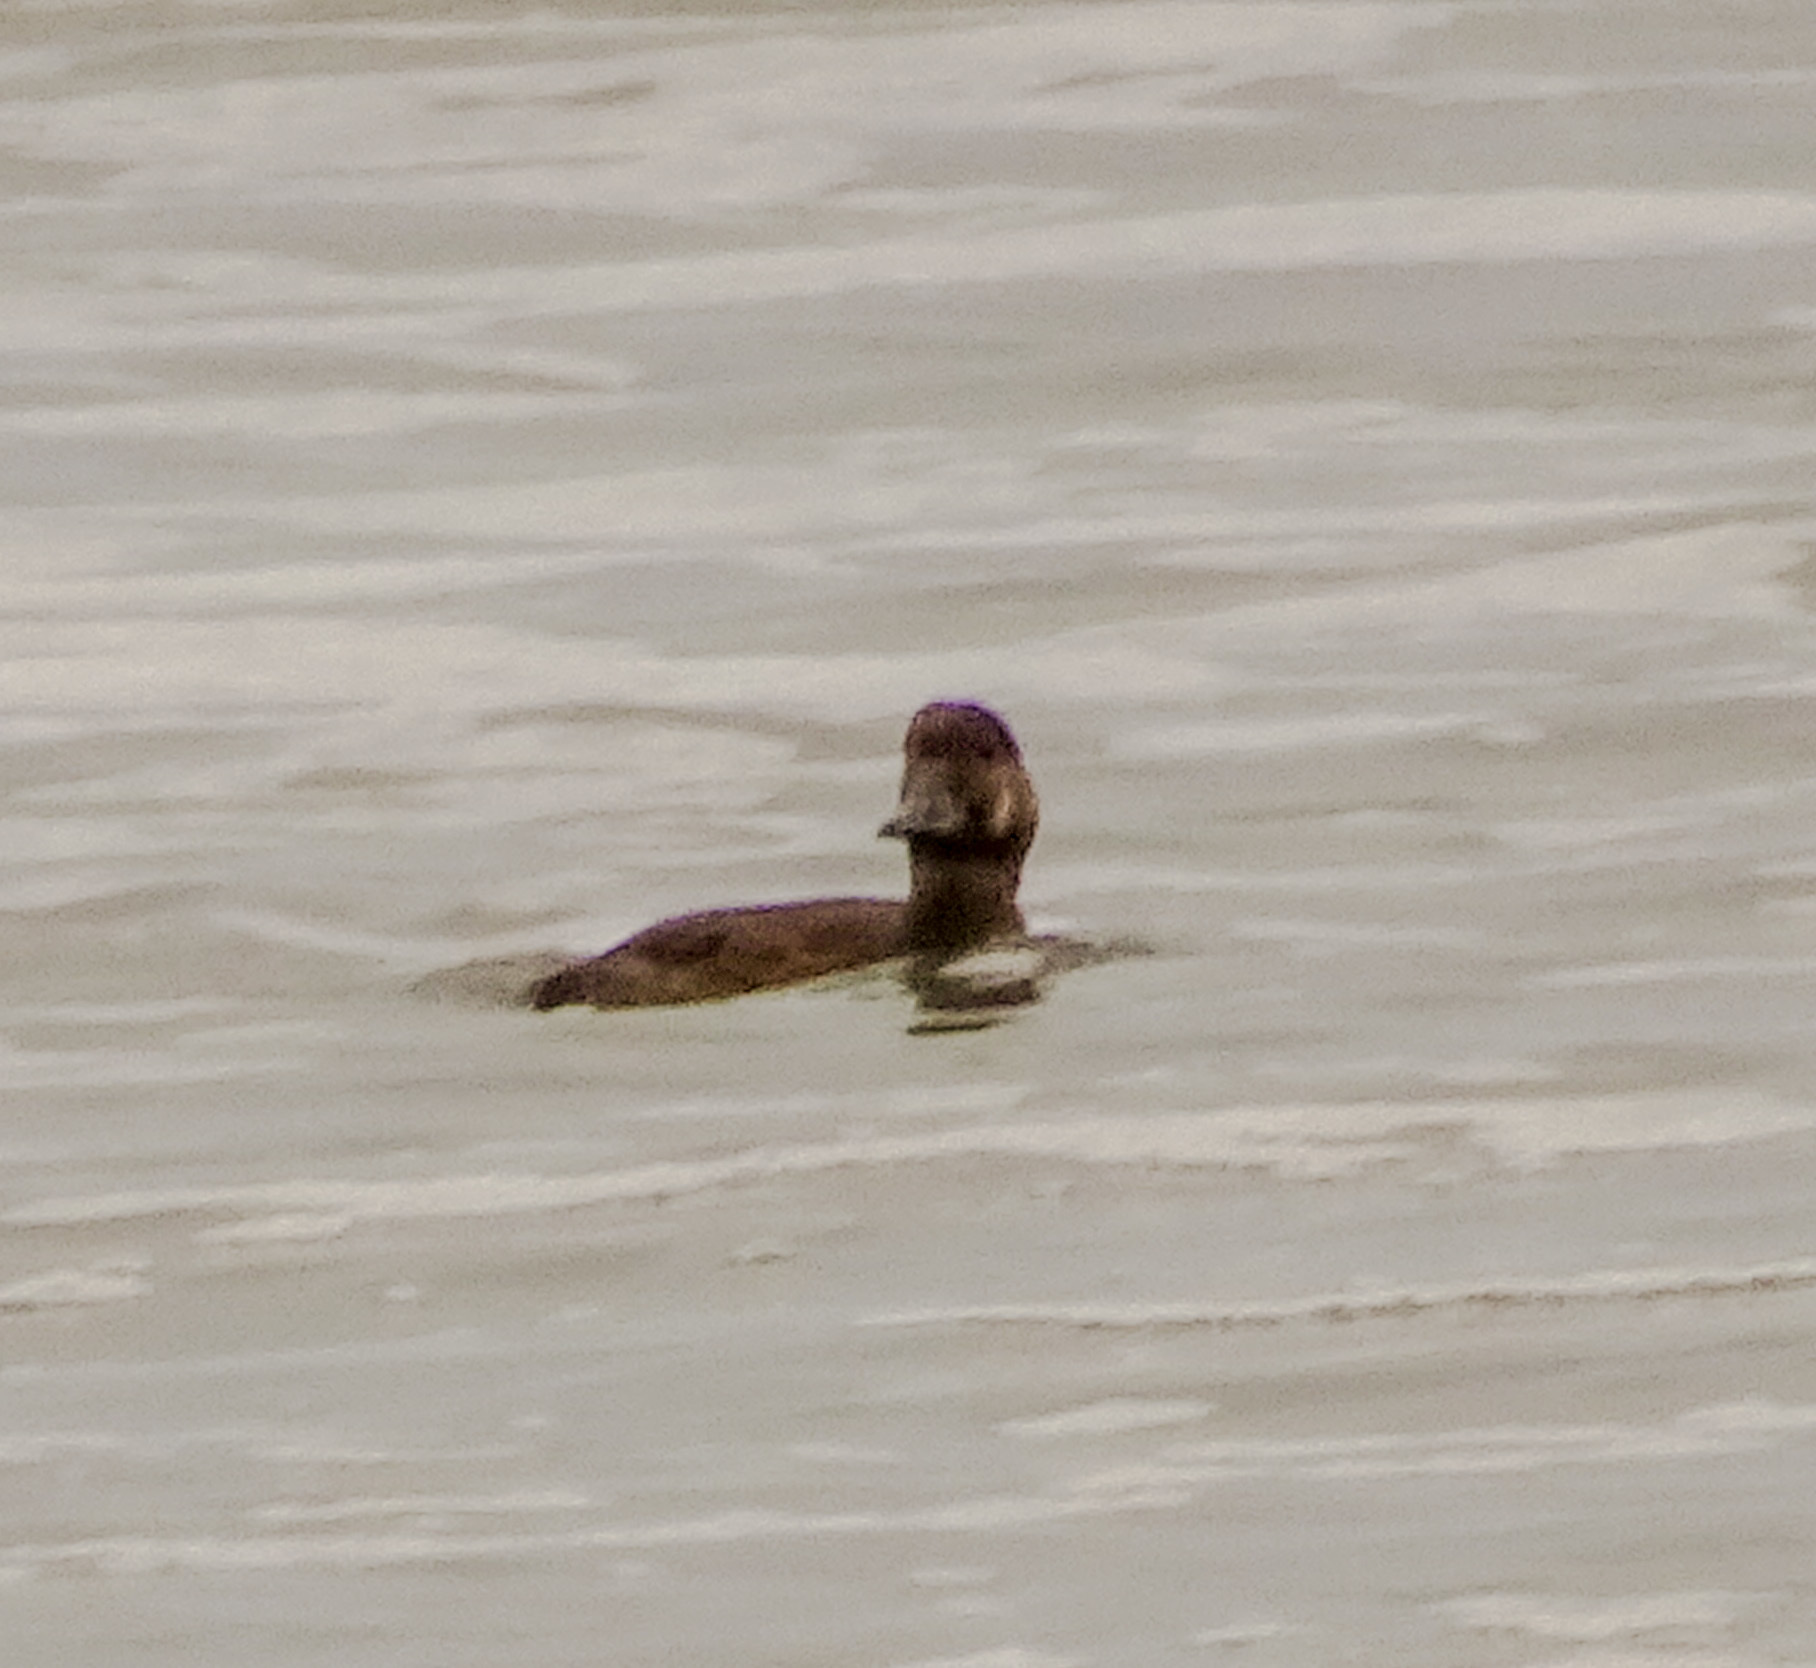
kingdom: Animalia
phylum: Chordata
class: Aves
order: Anseriformes
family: Anatidae
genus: Melanitta
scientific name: Melanitta perspicillata
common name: Surf scoter
